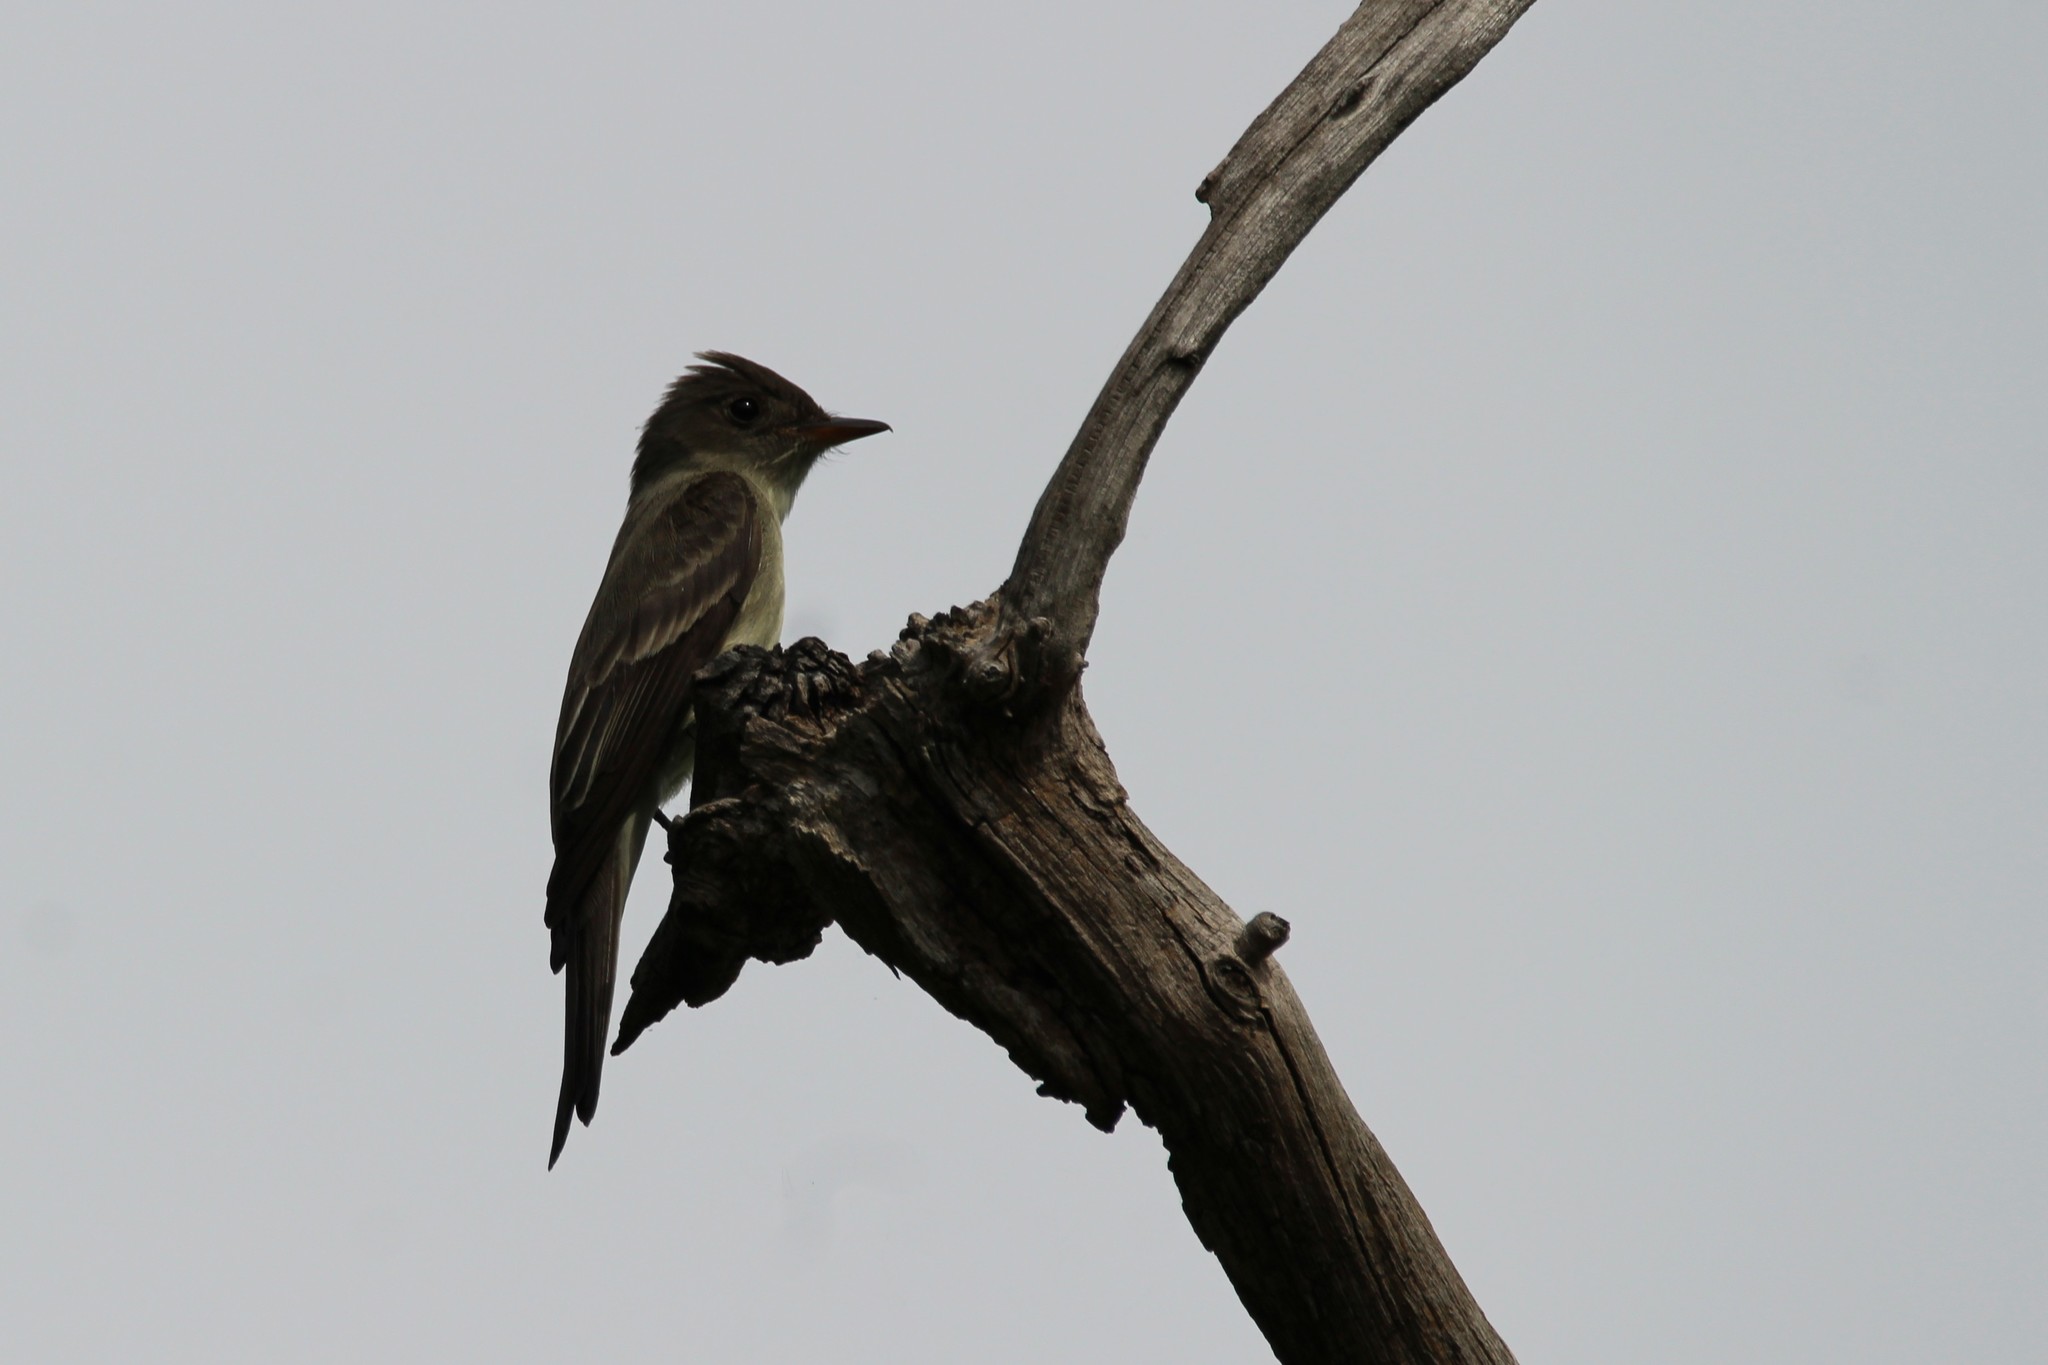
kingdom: Animalia
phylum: Chordata
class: Aves
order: Passeriformes
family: Tyrannidae
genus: Contopus
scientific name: Contopus virens
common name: Eastern wood-pewee
